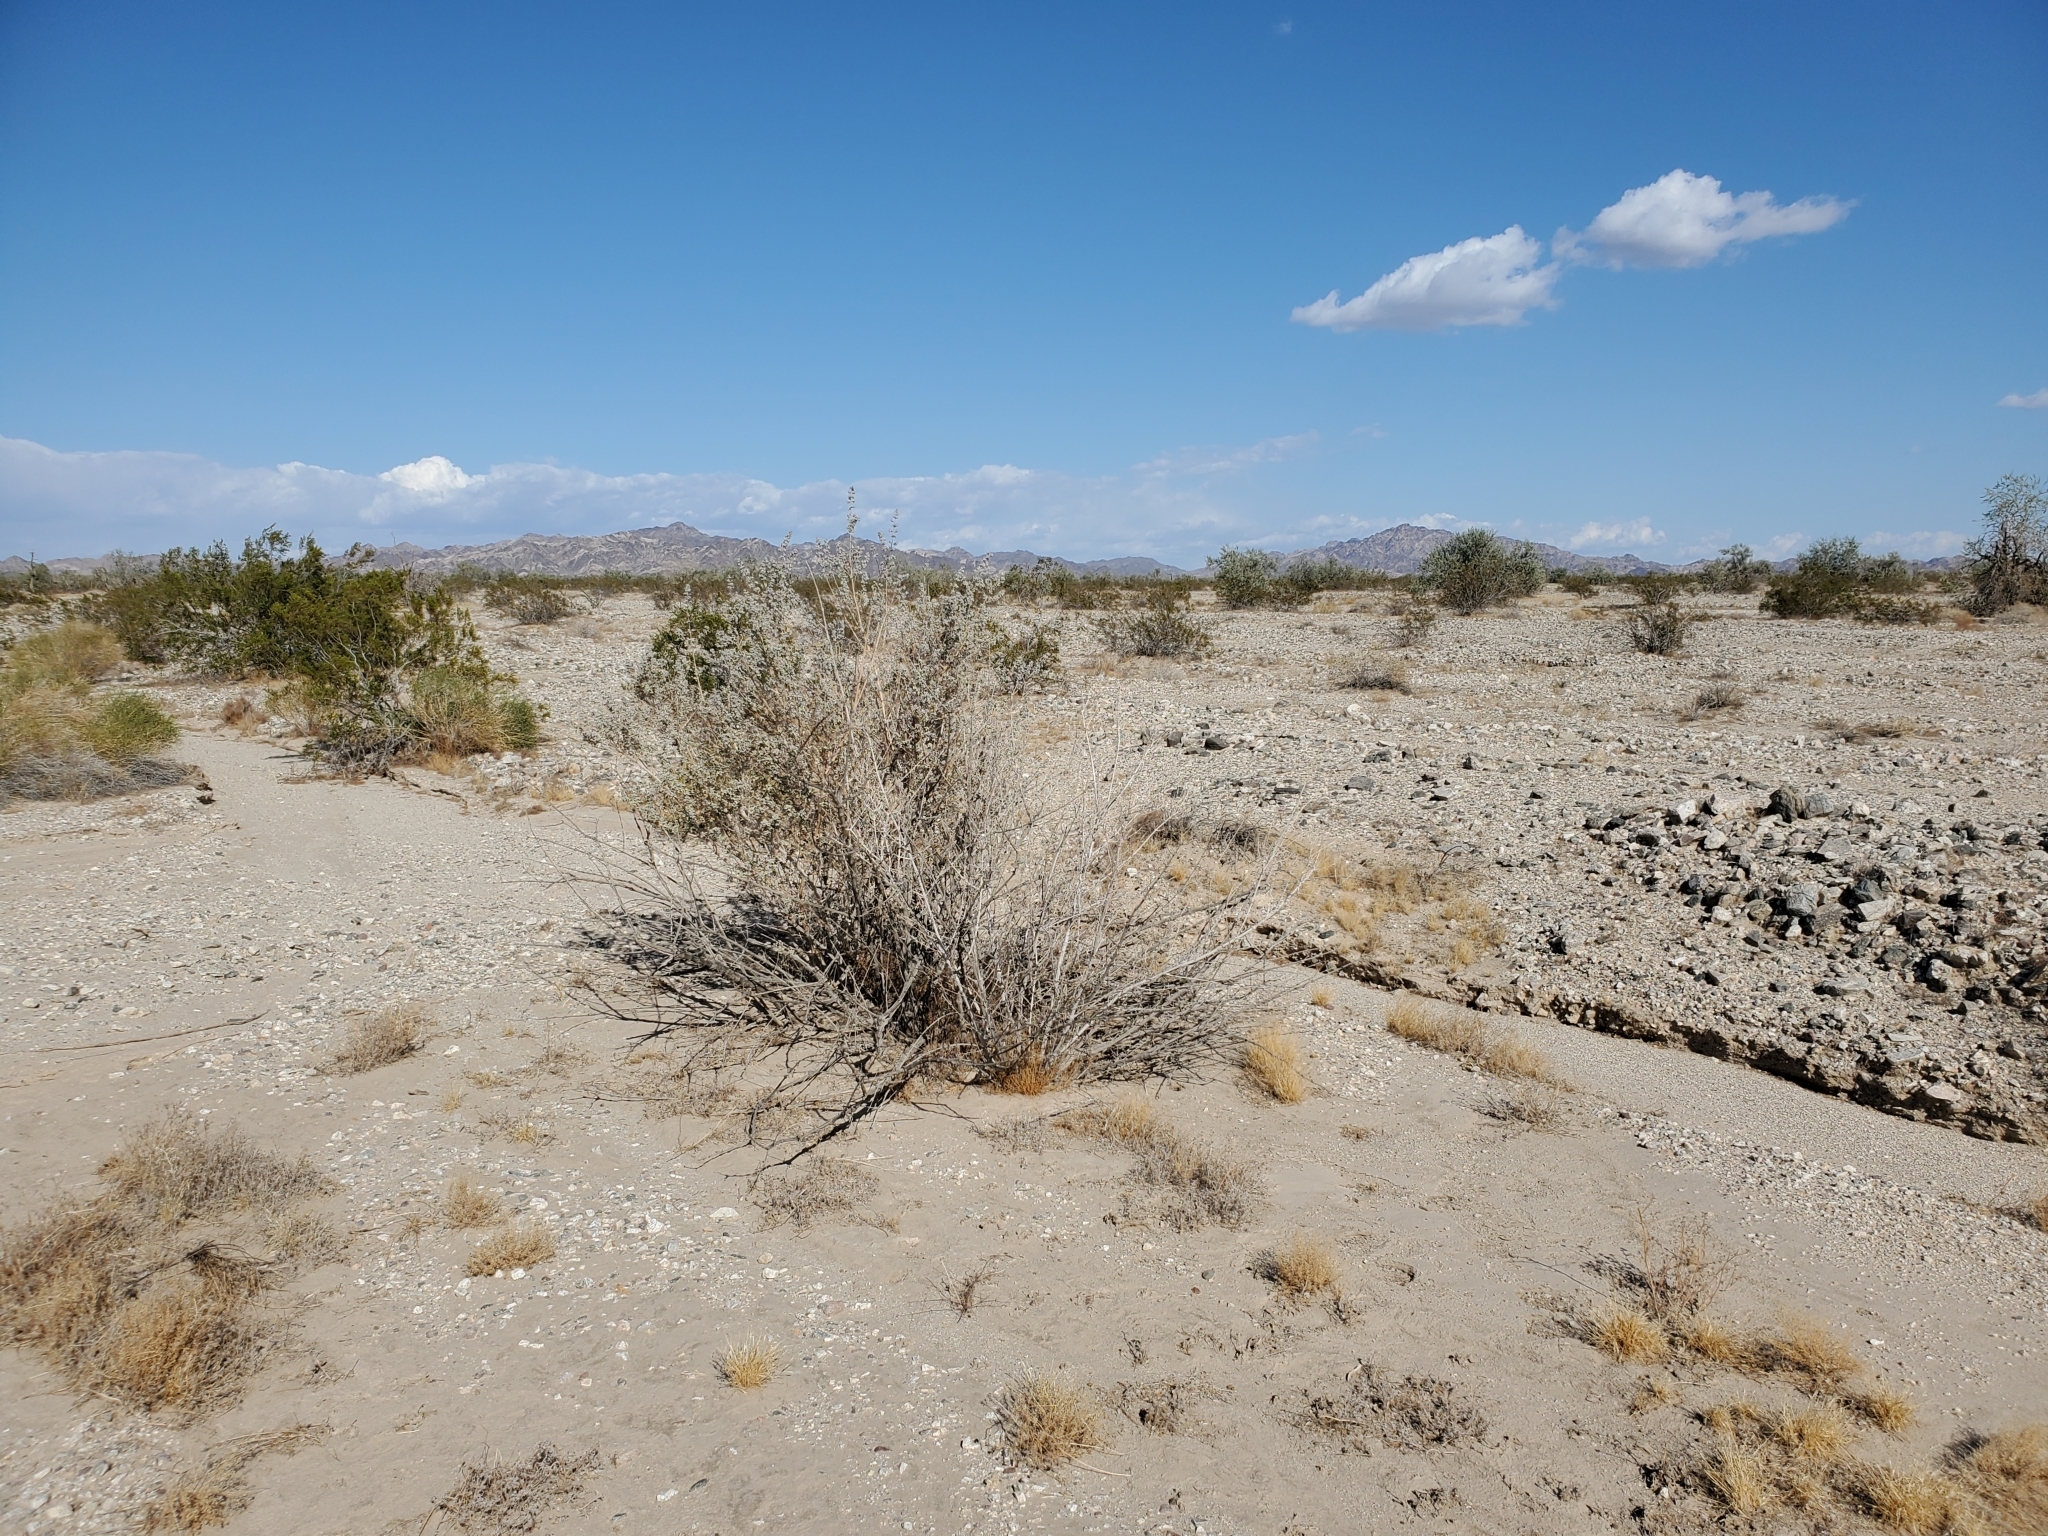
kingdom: Plantae
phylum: Tracheophyta
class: Magnoliopsida
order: Lamiales
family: Lamiaceae
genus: Condea
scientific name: Condea emoryi
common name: Chia
